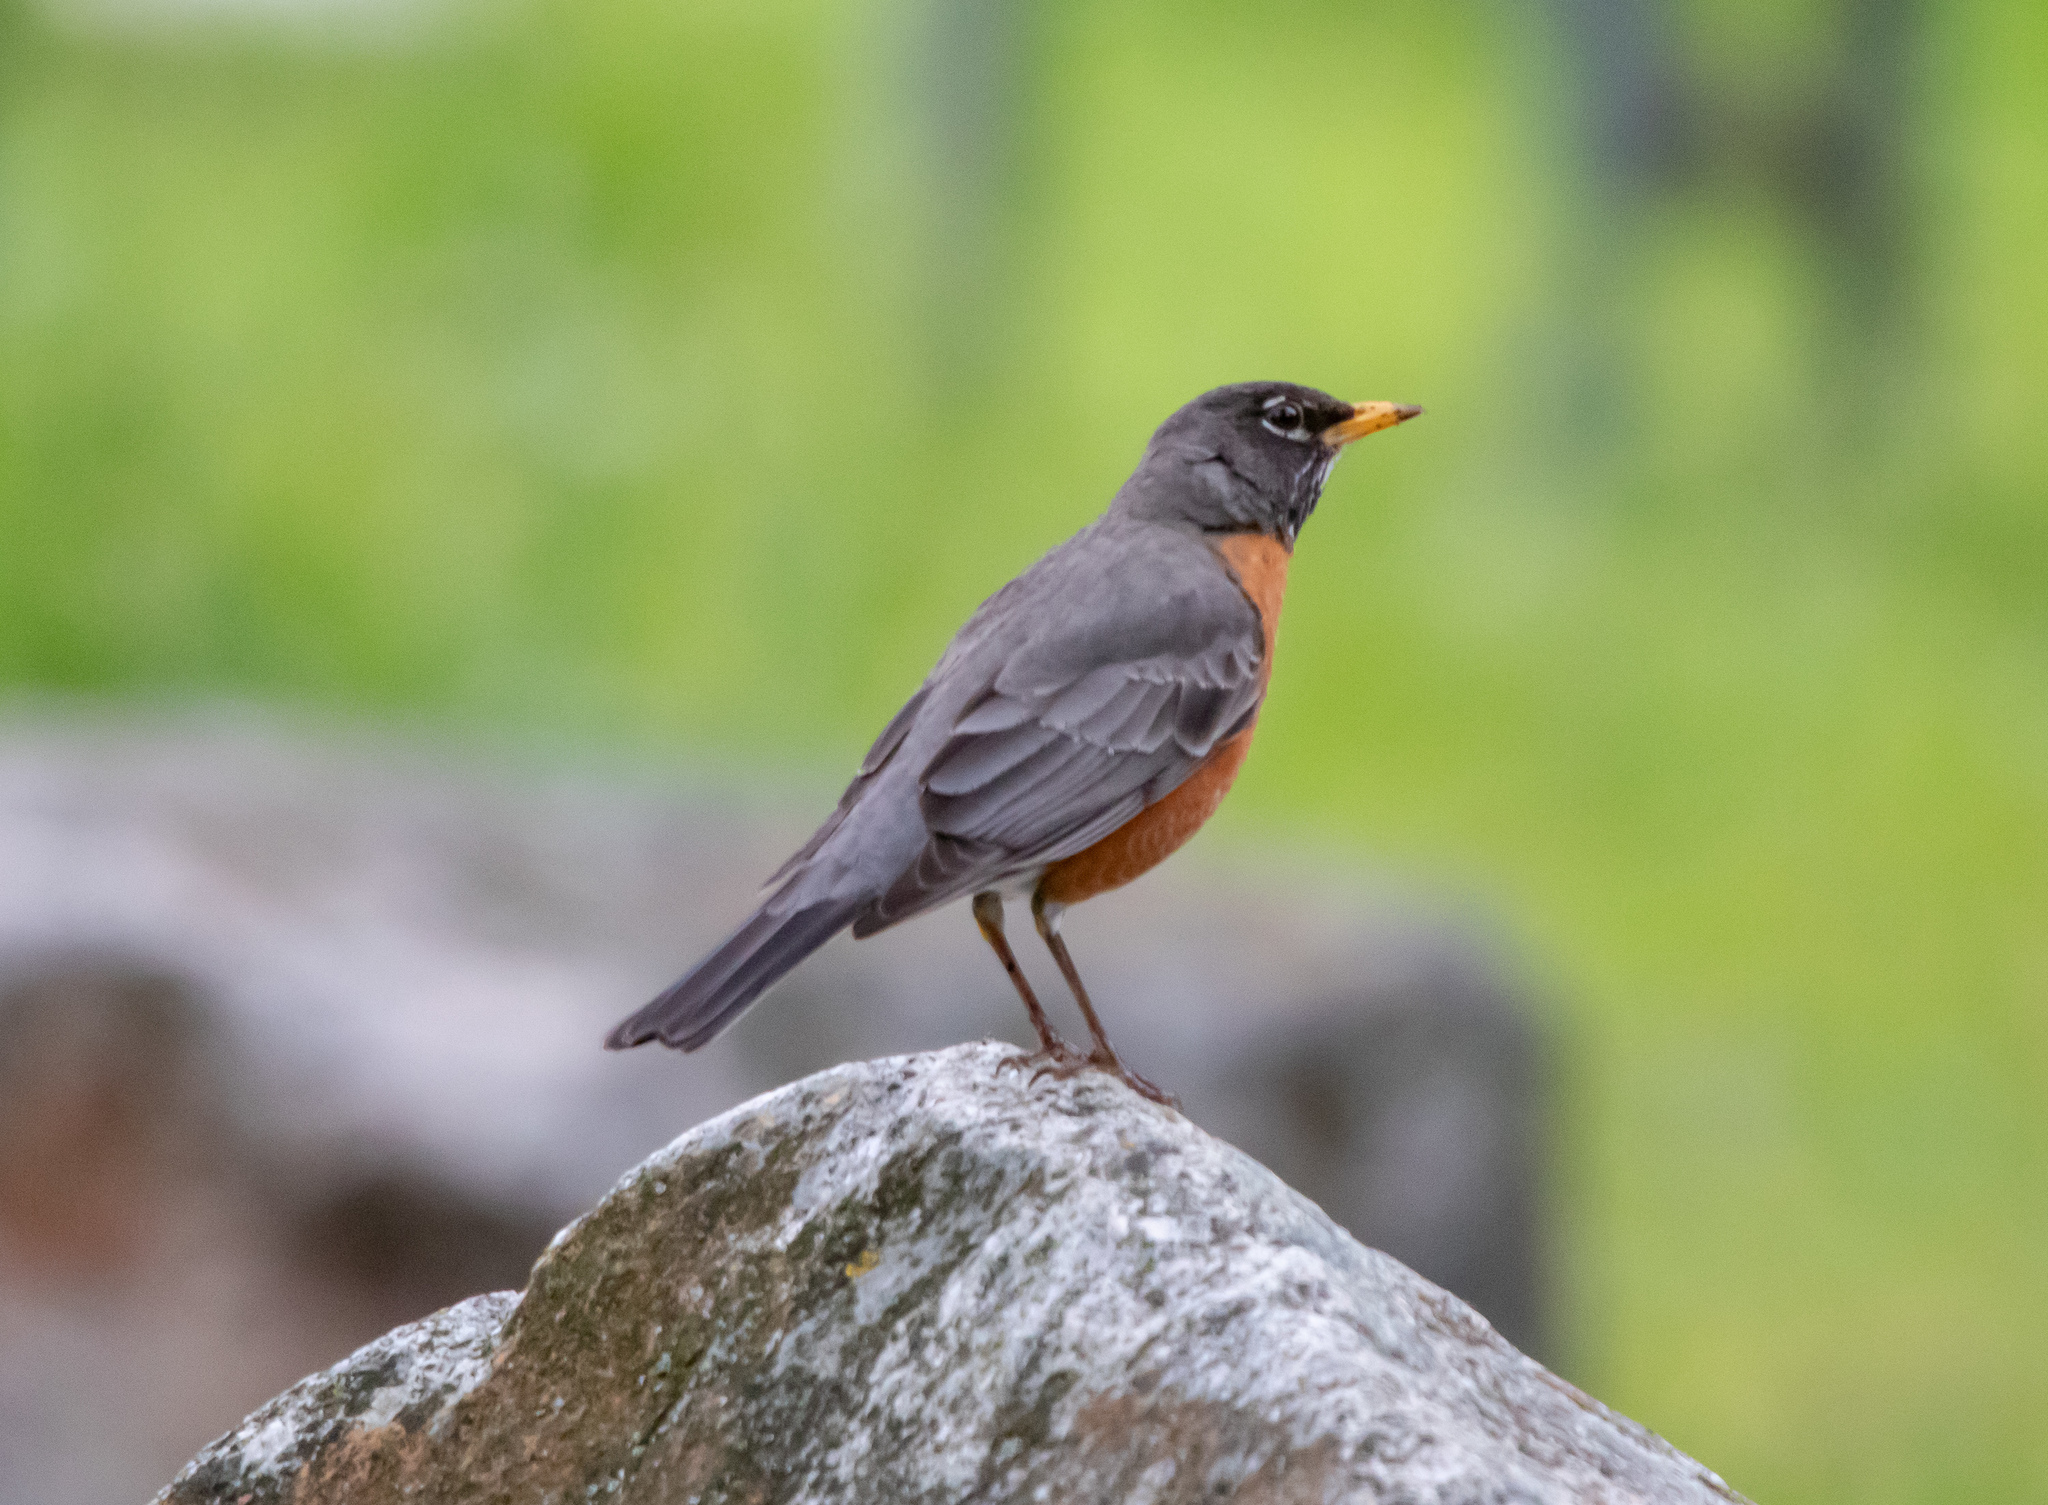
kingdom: Animalia
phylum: Chordata
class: Aves
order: Passeriformes
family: Turdidae
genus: Turdus
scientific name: Turdus migratorius
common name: American robin
